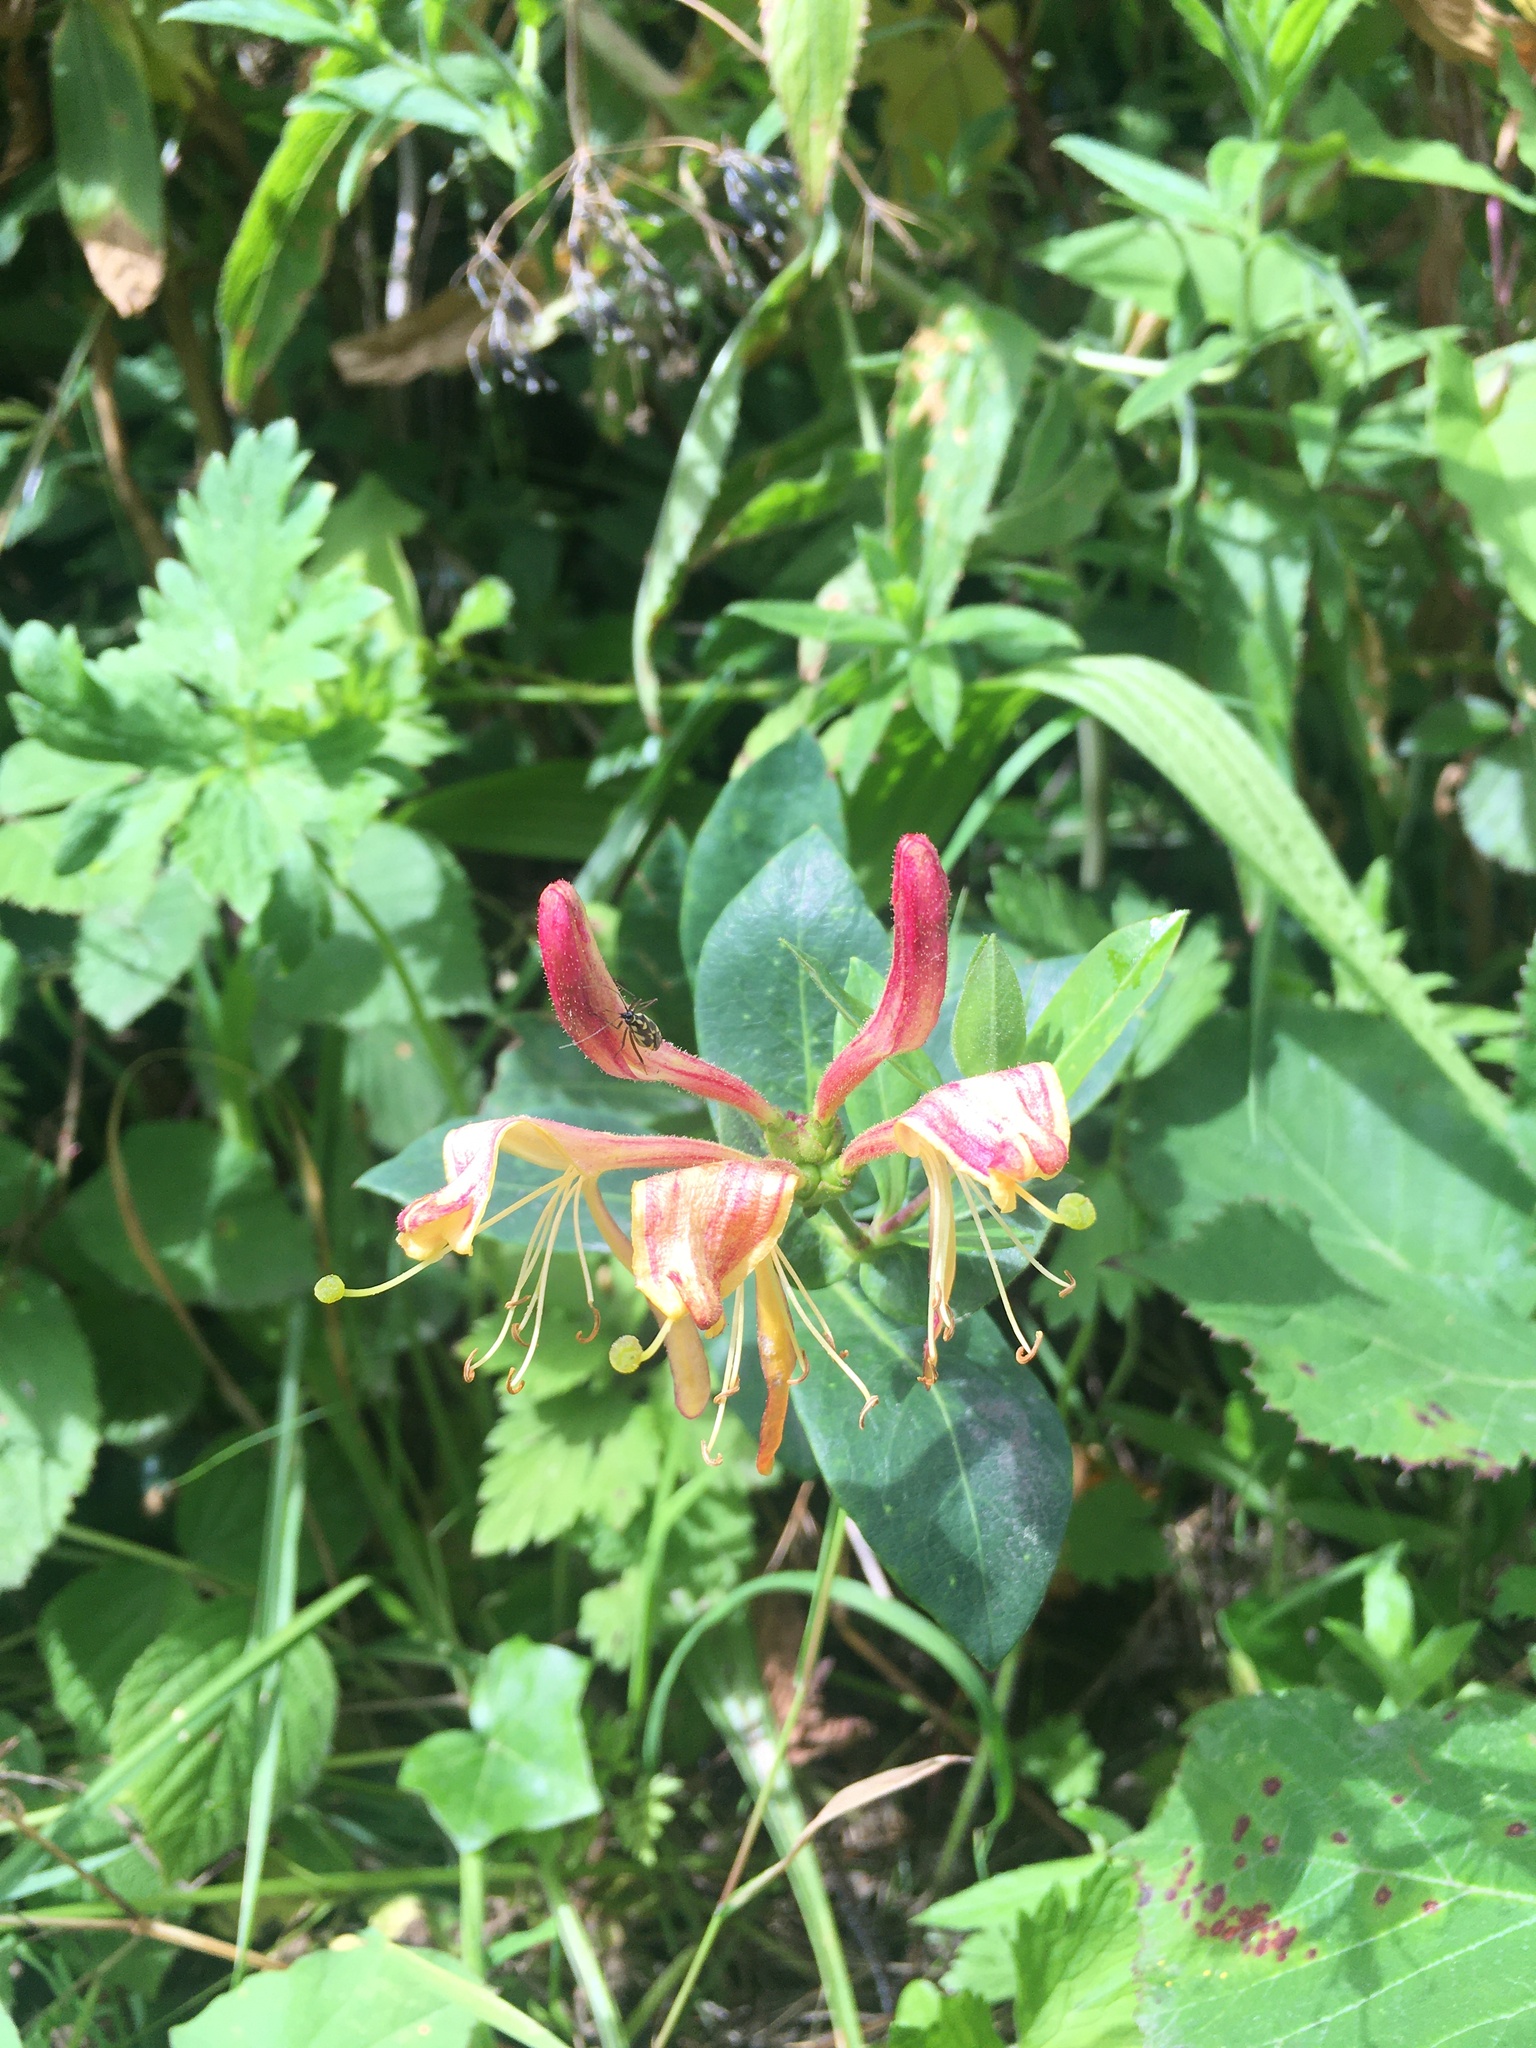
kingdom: Plantae
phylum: Tracheophyta
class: Magnoliopsida
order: Dipsacales
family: Caprifoliaceae
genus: Lonicera
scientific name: Lonicera periclymenum
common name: European honeysuckle
